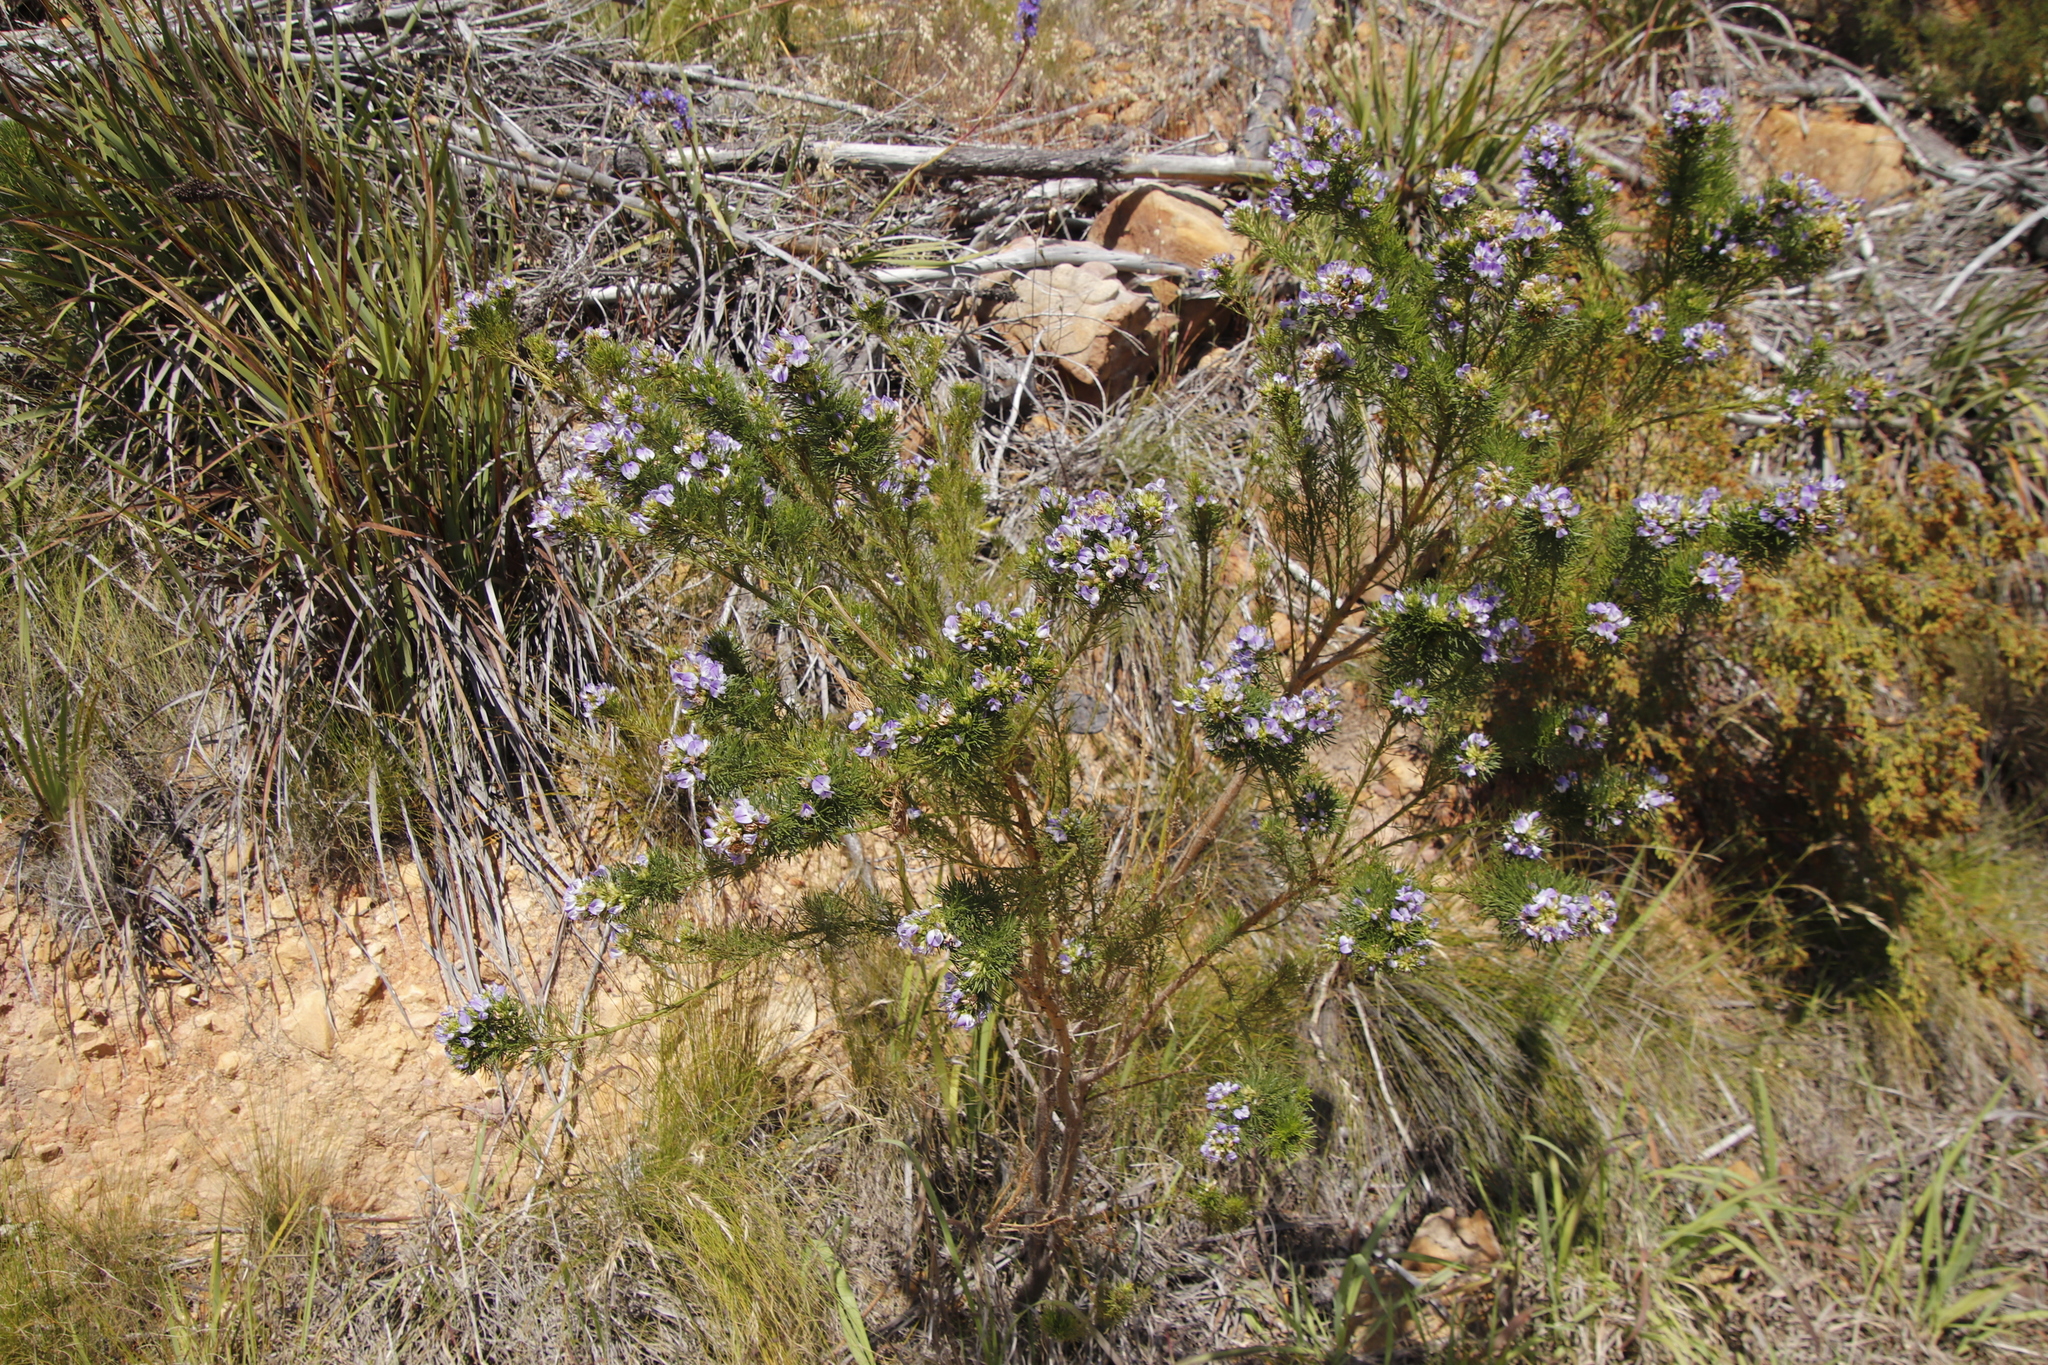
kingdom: Plantae
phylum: Tracheophyta
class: Magnoliopsida
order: Fabales
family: Fabaceae
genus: Psoralea
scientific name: Psoralea pinnata
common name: African scurfpea
